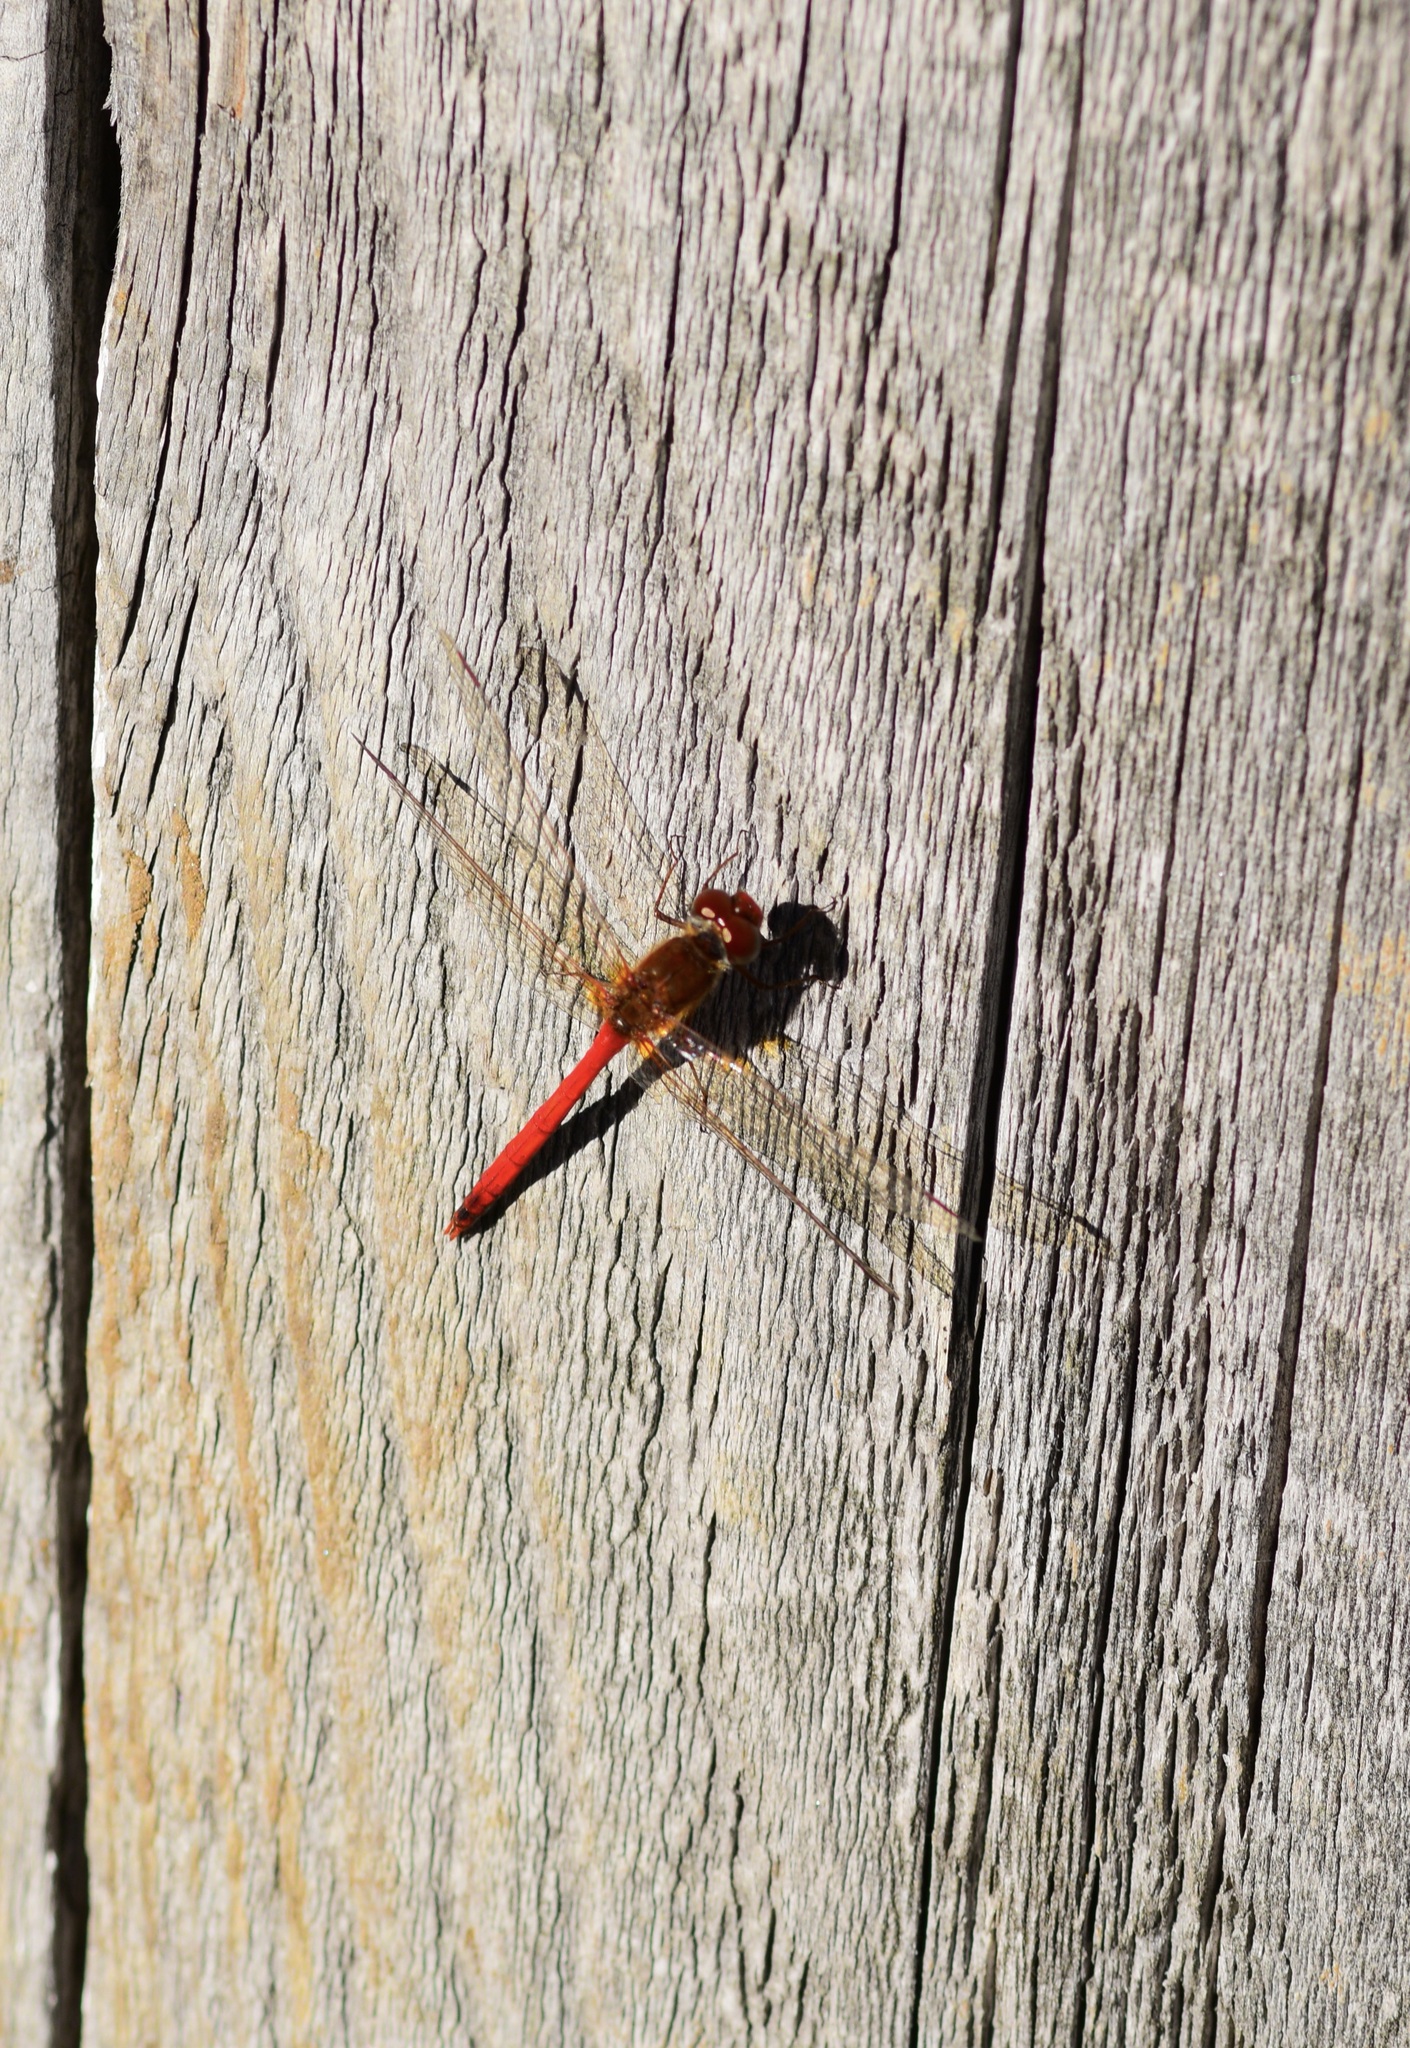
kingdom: Animalia
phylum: Arthropoda
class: Insecta
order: Odonata
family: Libellulidae
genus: Sympetrum
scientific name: Sympetrum vicinum
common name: Autumn meadowhawk
